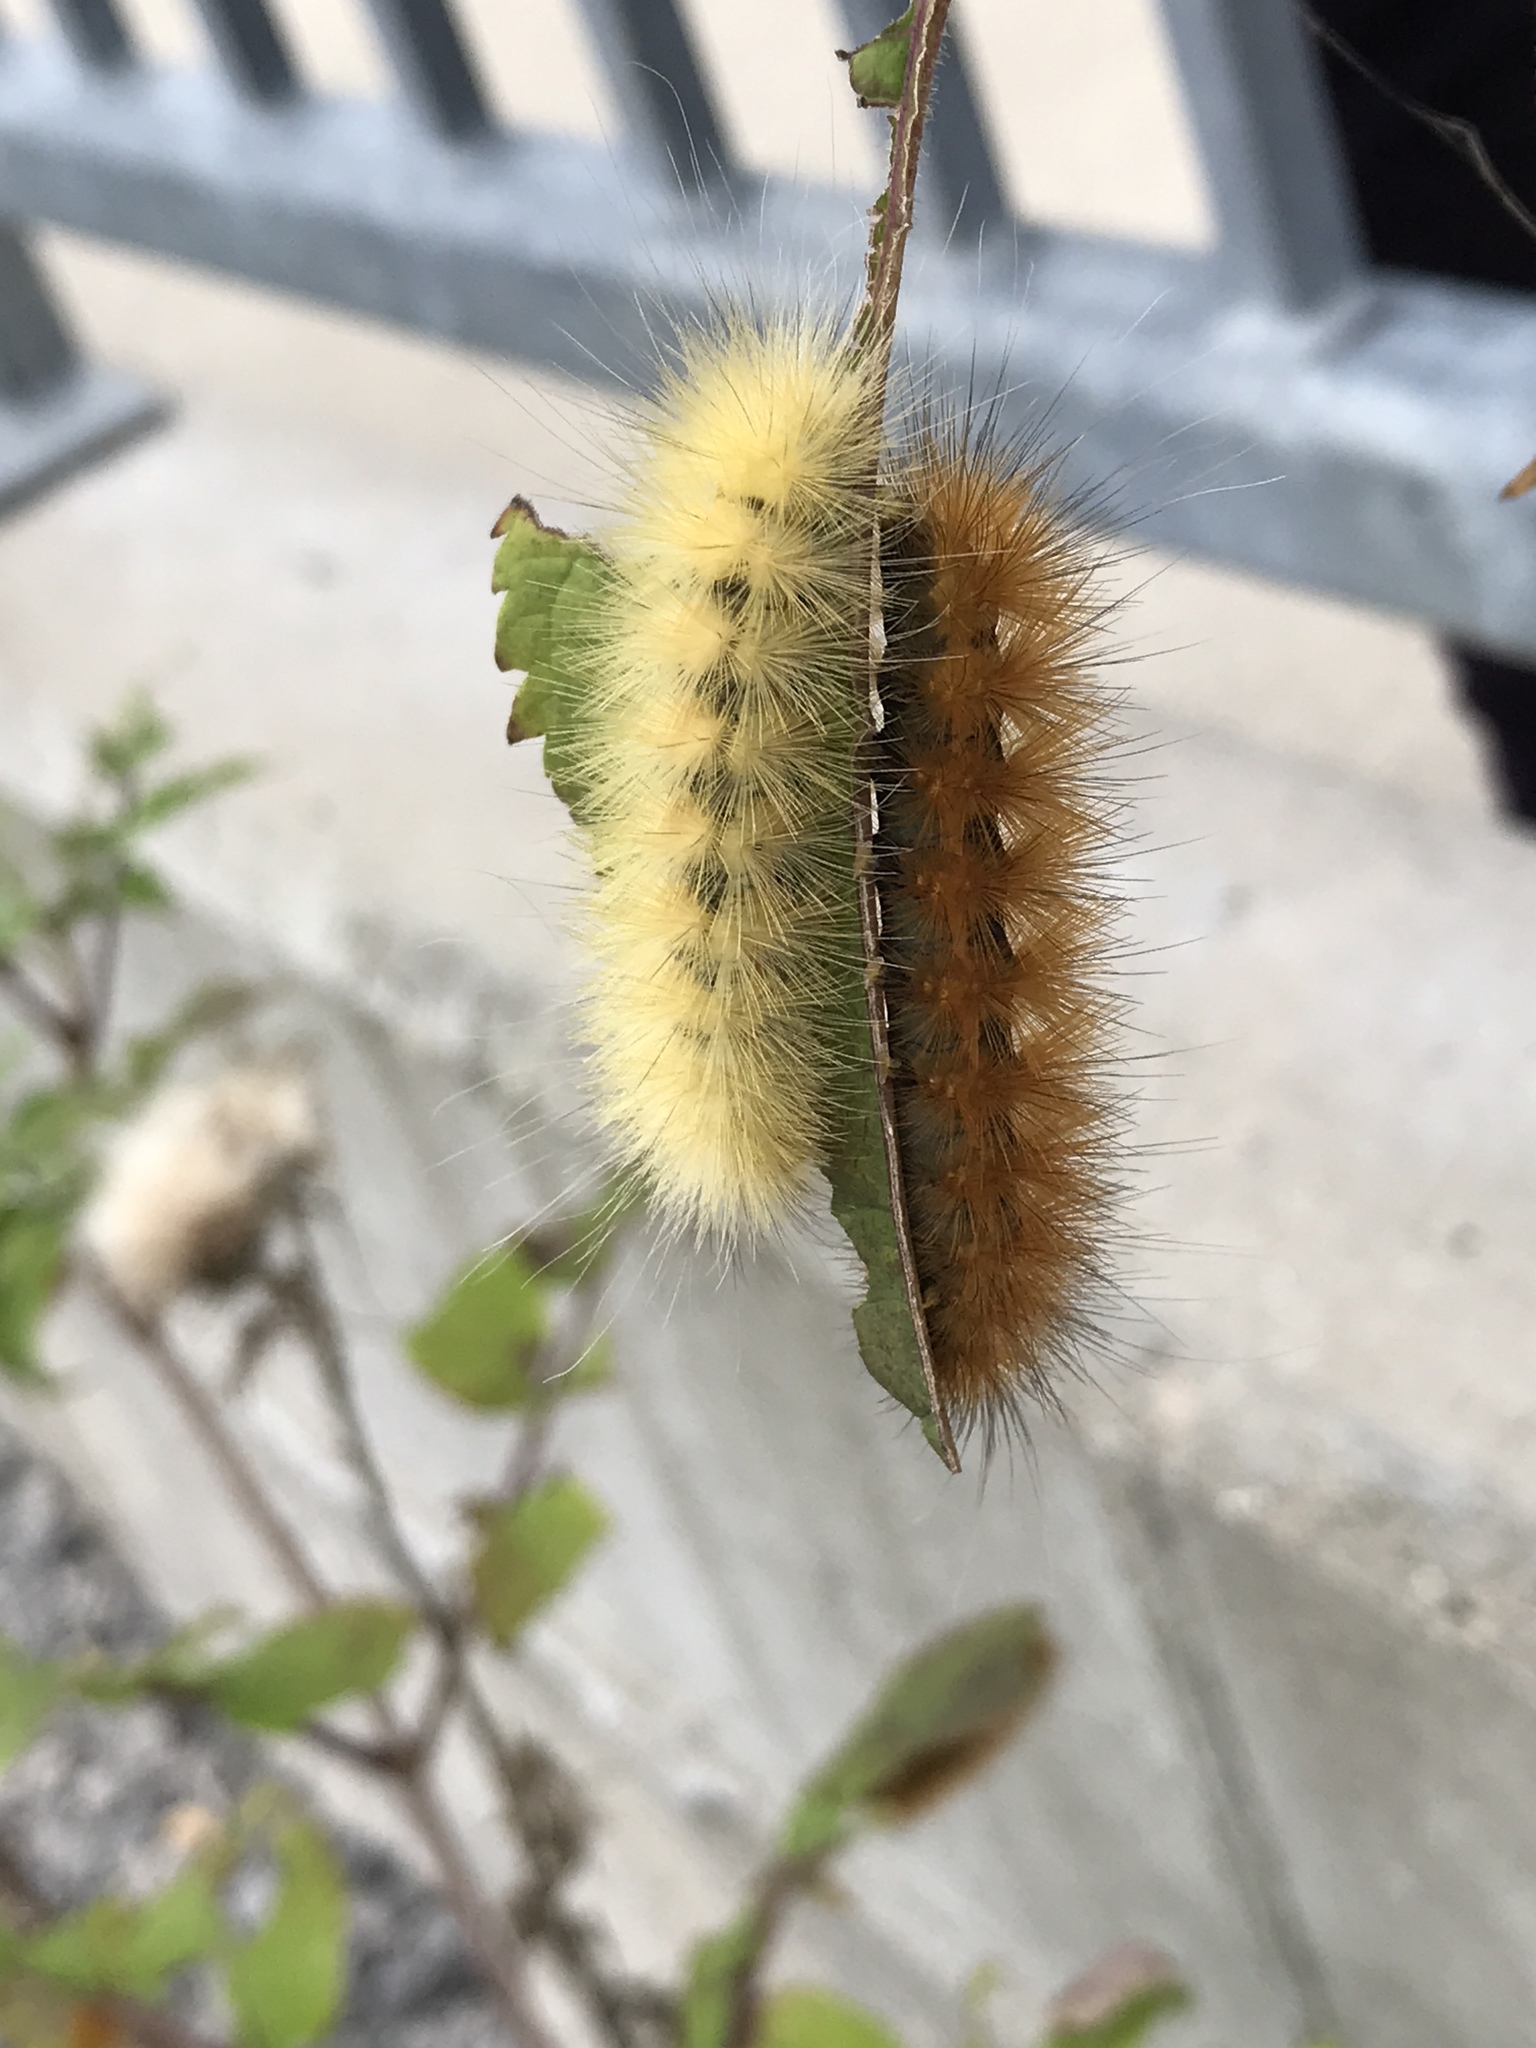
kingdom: Animalia
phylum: Arthropoda
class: Insecta
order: Lepidoptera
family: Erebidae
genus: Spilosoma
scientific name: Spilosoma virginica
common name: Virginia tiger moth
